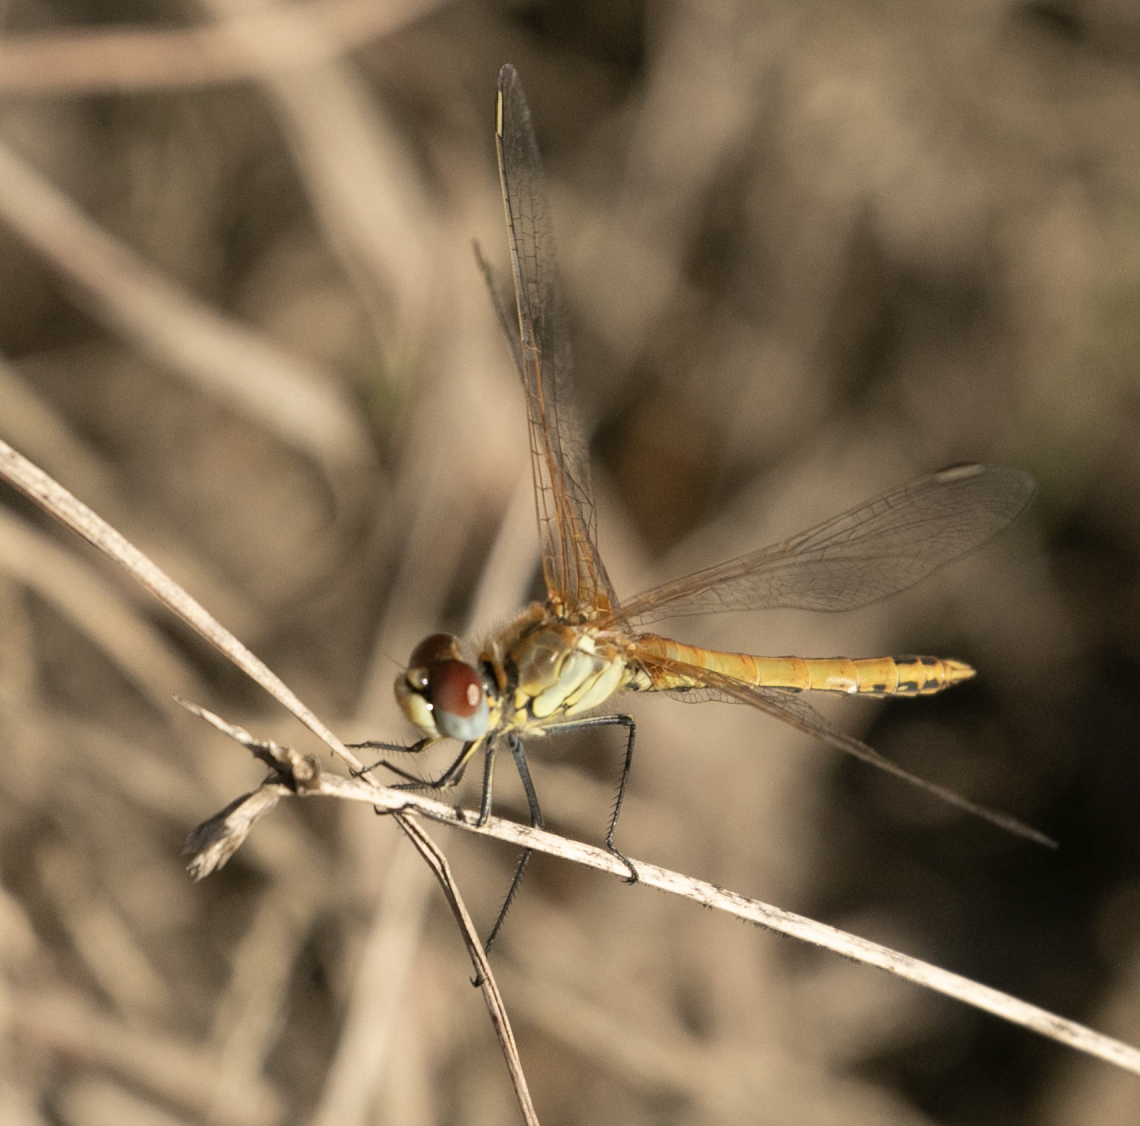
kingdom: Animalia
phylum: Arthropoda
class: Insecta
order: Odonata
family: Libellulidae
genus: Sympetrum
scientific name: Sympetrum fonscolombii
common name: Red-veined darter
